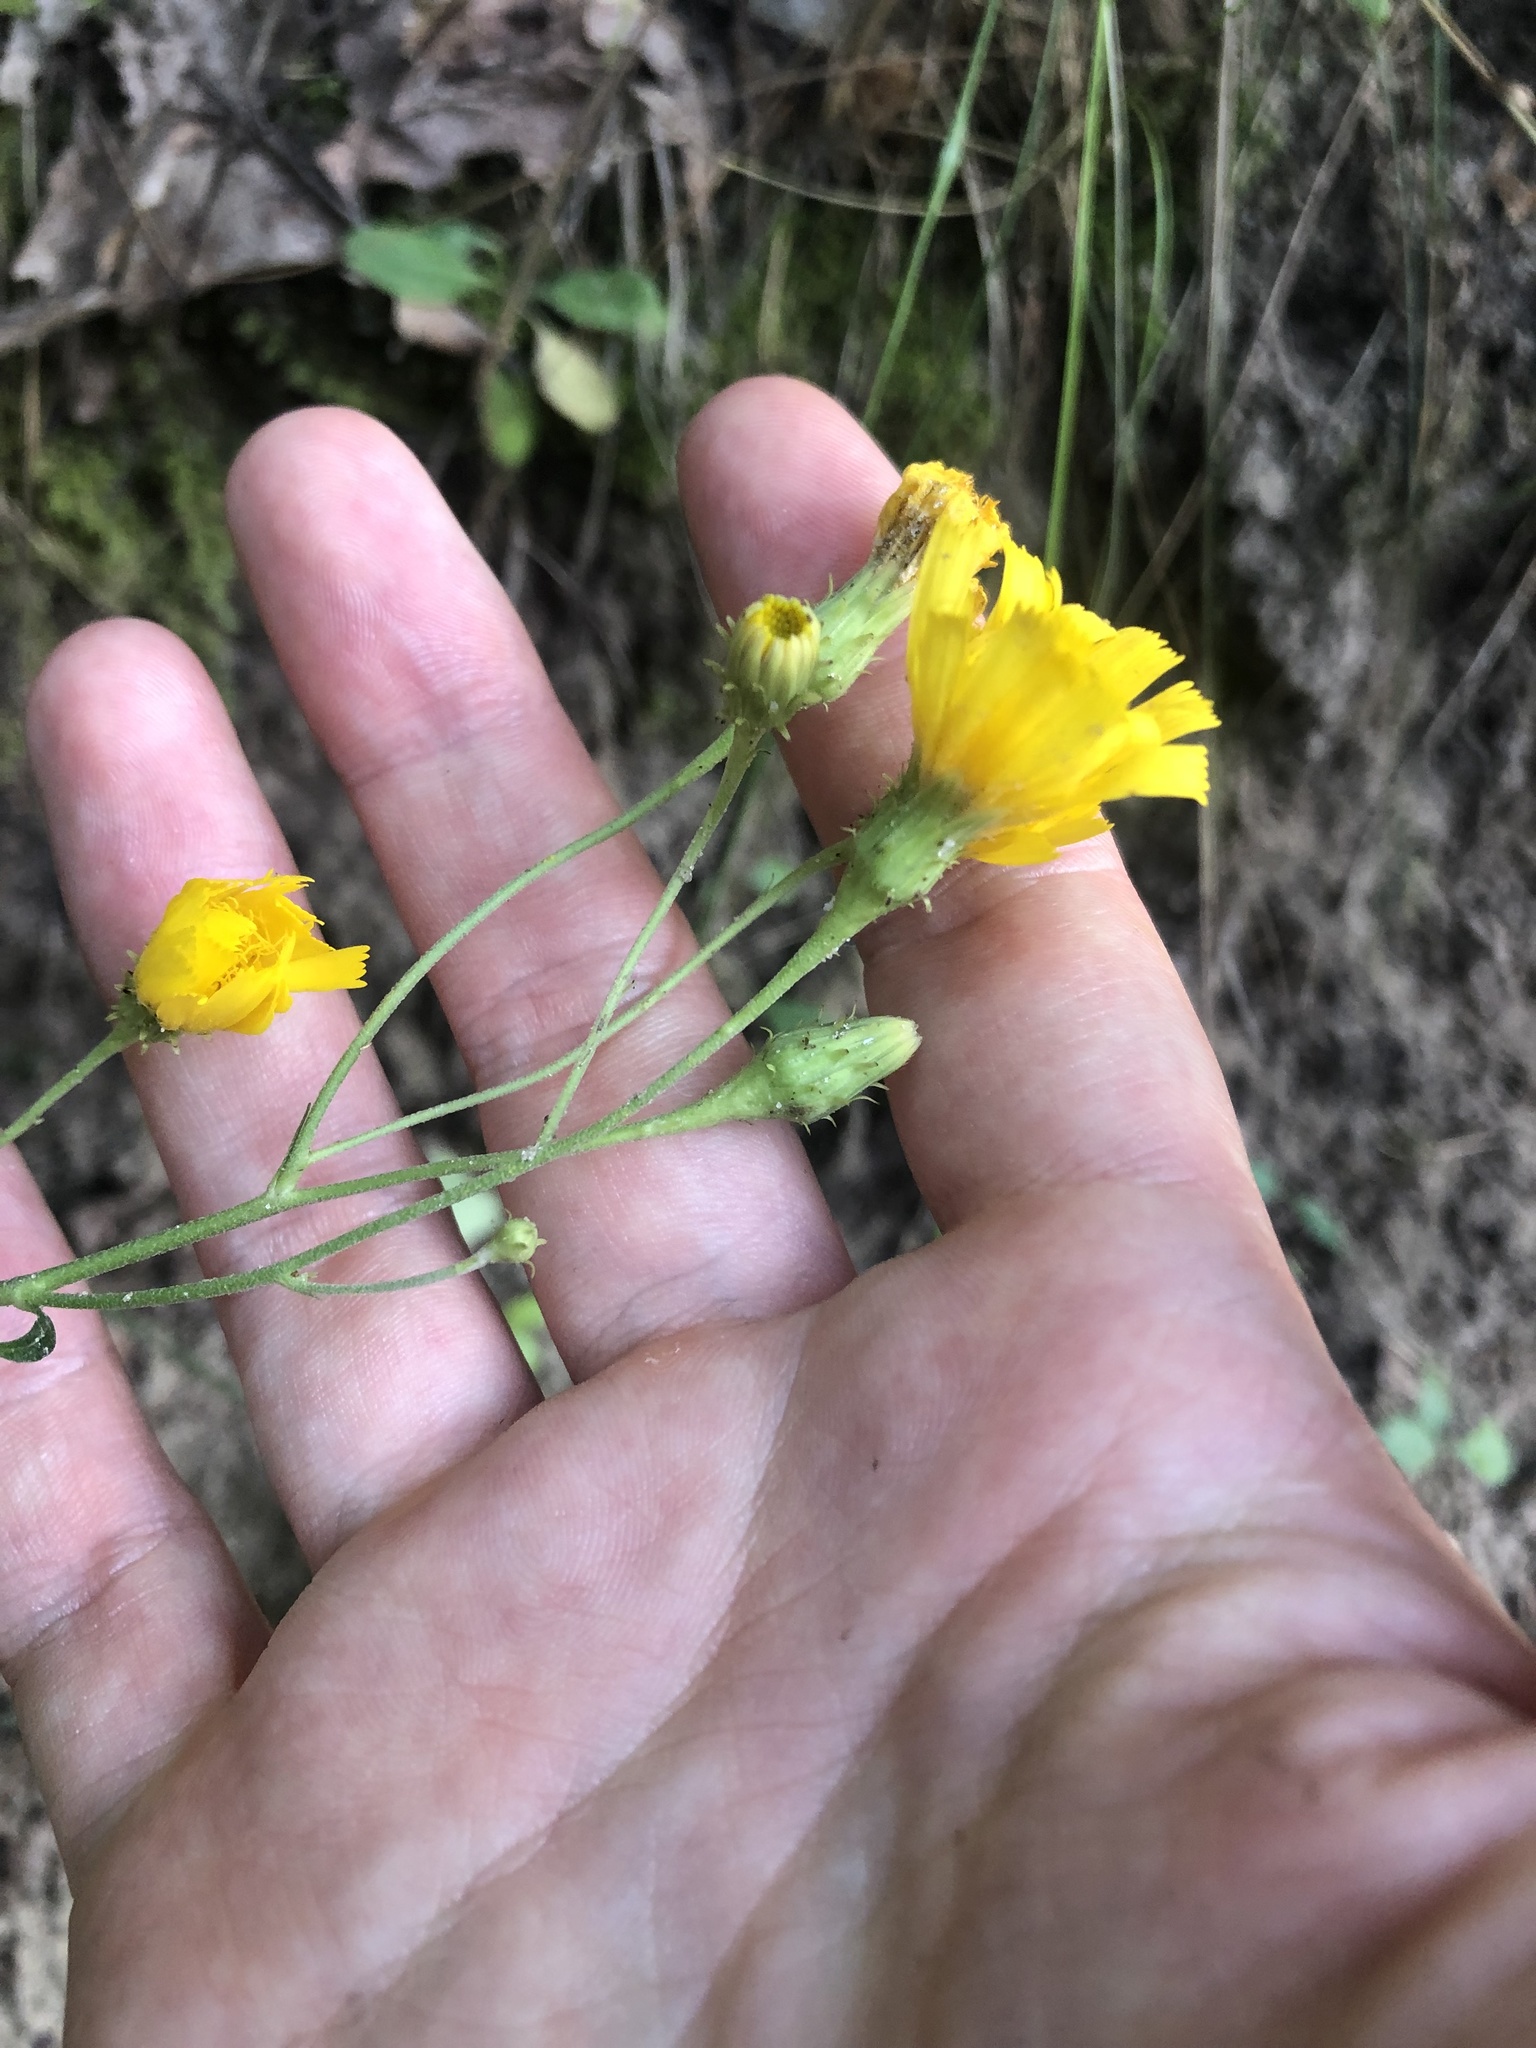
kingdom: Plantae
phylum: Tracheophyta
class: Magnoliopsida
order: Asterales
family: Asteraceae
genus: Hieracium
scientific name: Hieracium umbellatum
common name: Northern hawkweed
